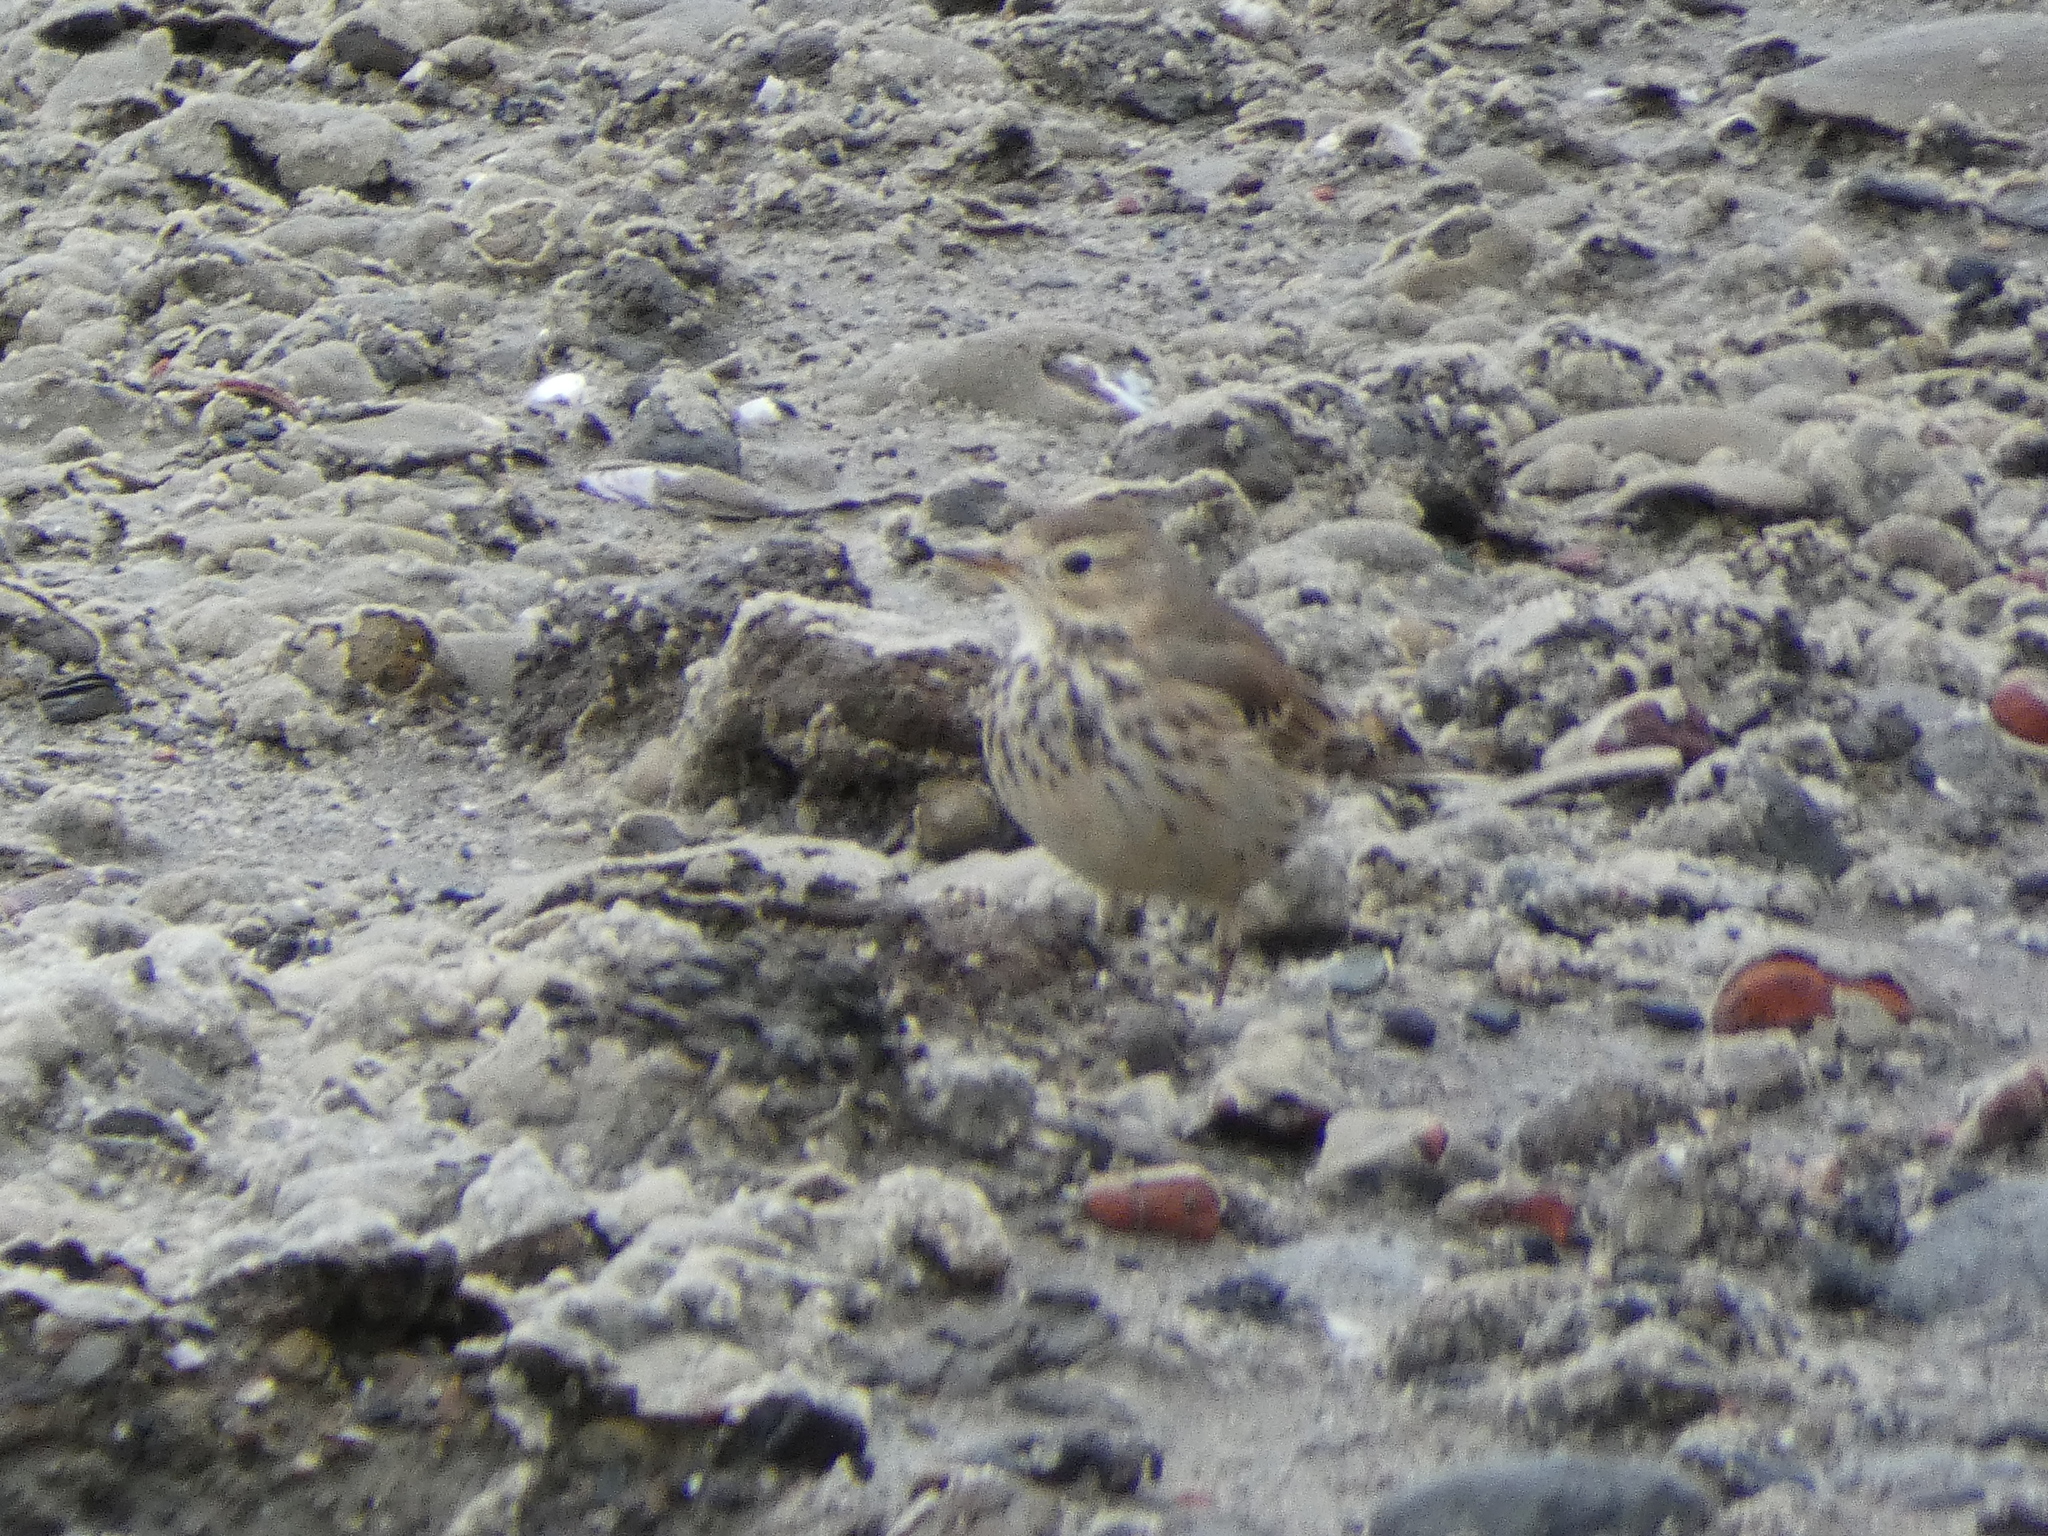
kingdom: Animalia
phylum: Chordata
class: Aves
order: Passeriformes
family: Motacillidae
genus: Anthus
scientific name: Anthus rubescens
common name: Buff-bellied pipit
